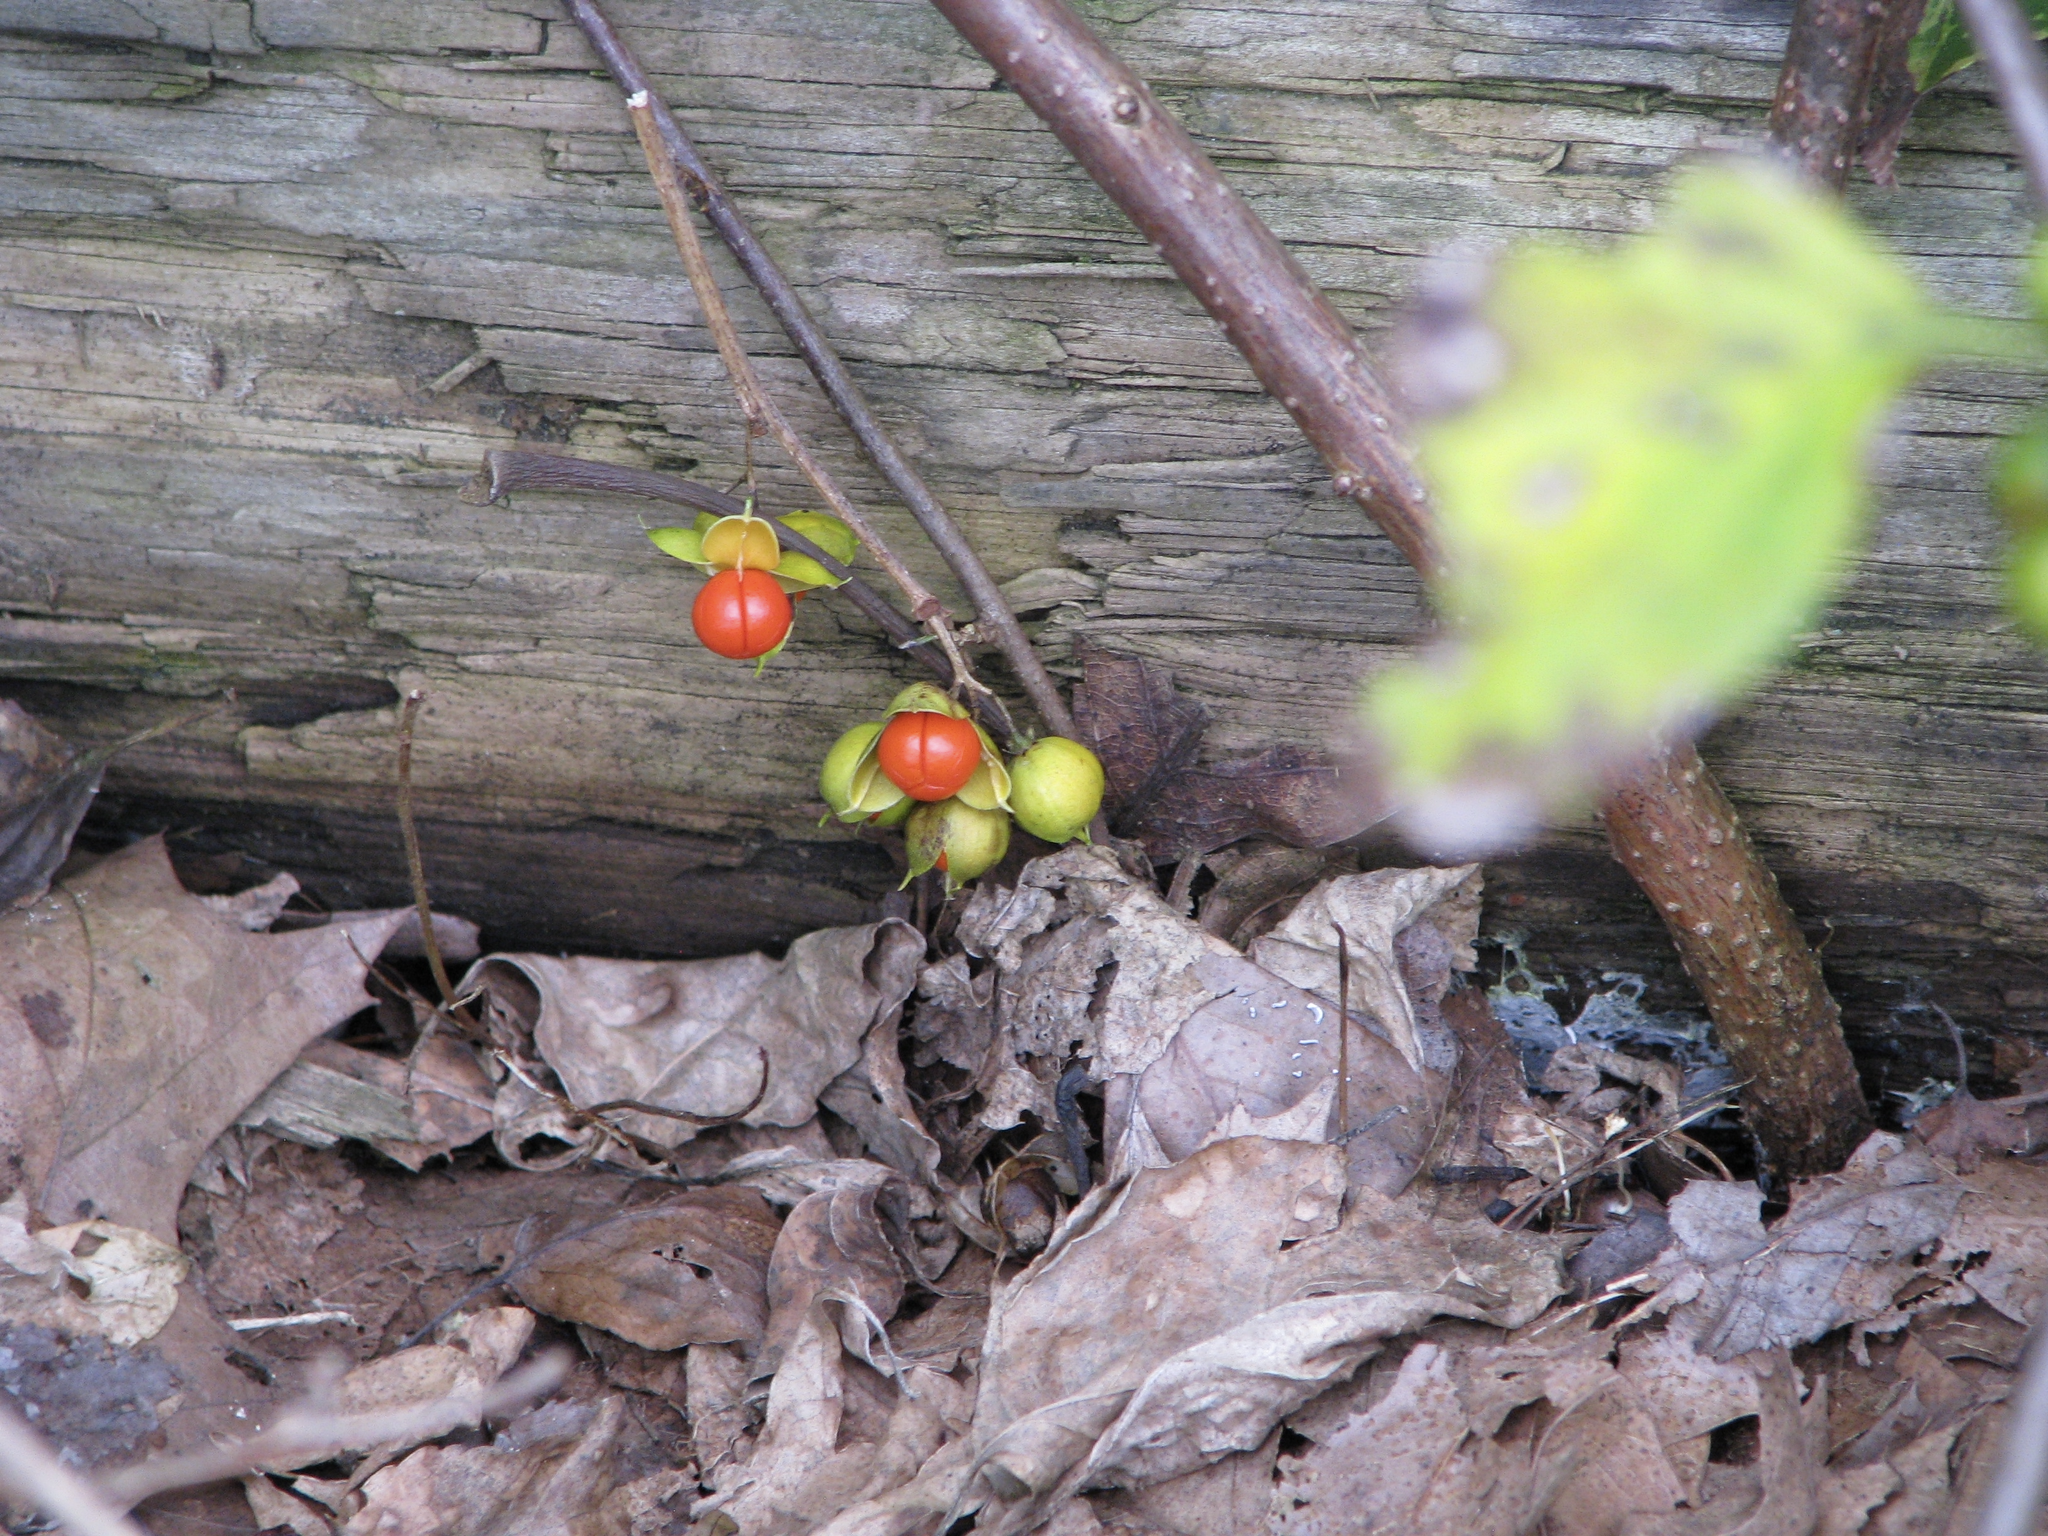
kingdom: Plantae
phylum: Tracheophyta
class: Magnoliopsida
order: Celastrales
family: Celastraceae
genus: Celastrus
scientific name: Celastrus orbiculatus
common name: Oriental bittersweet
